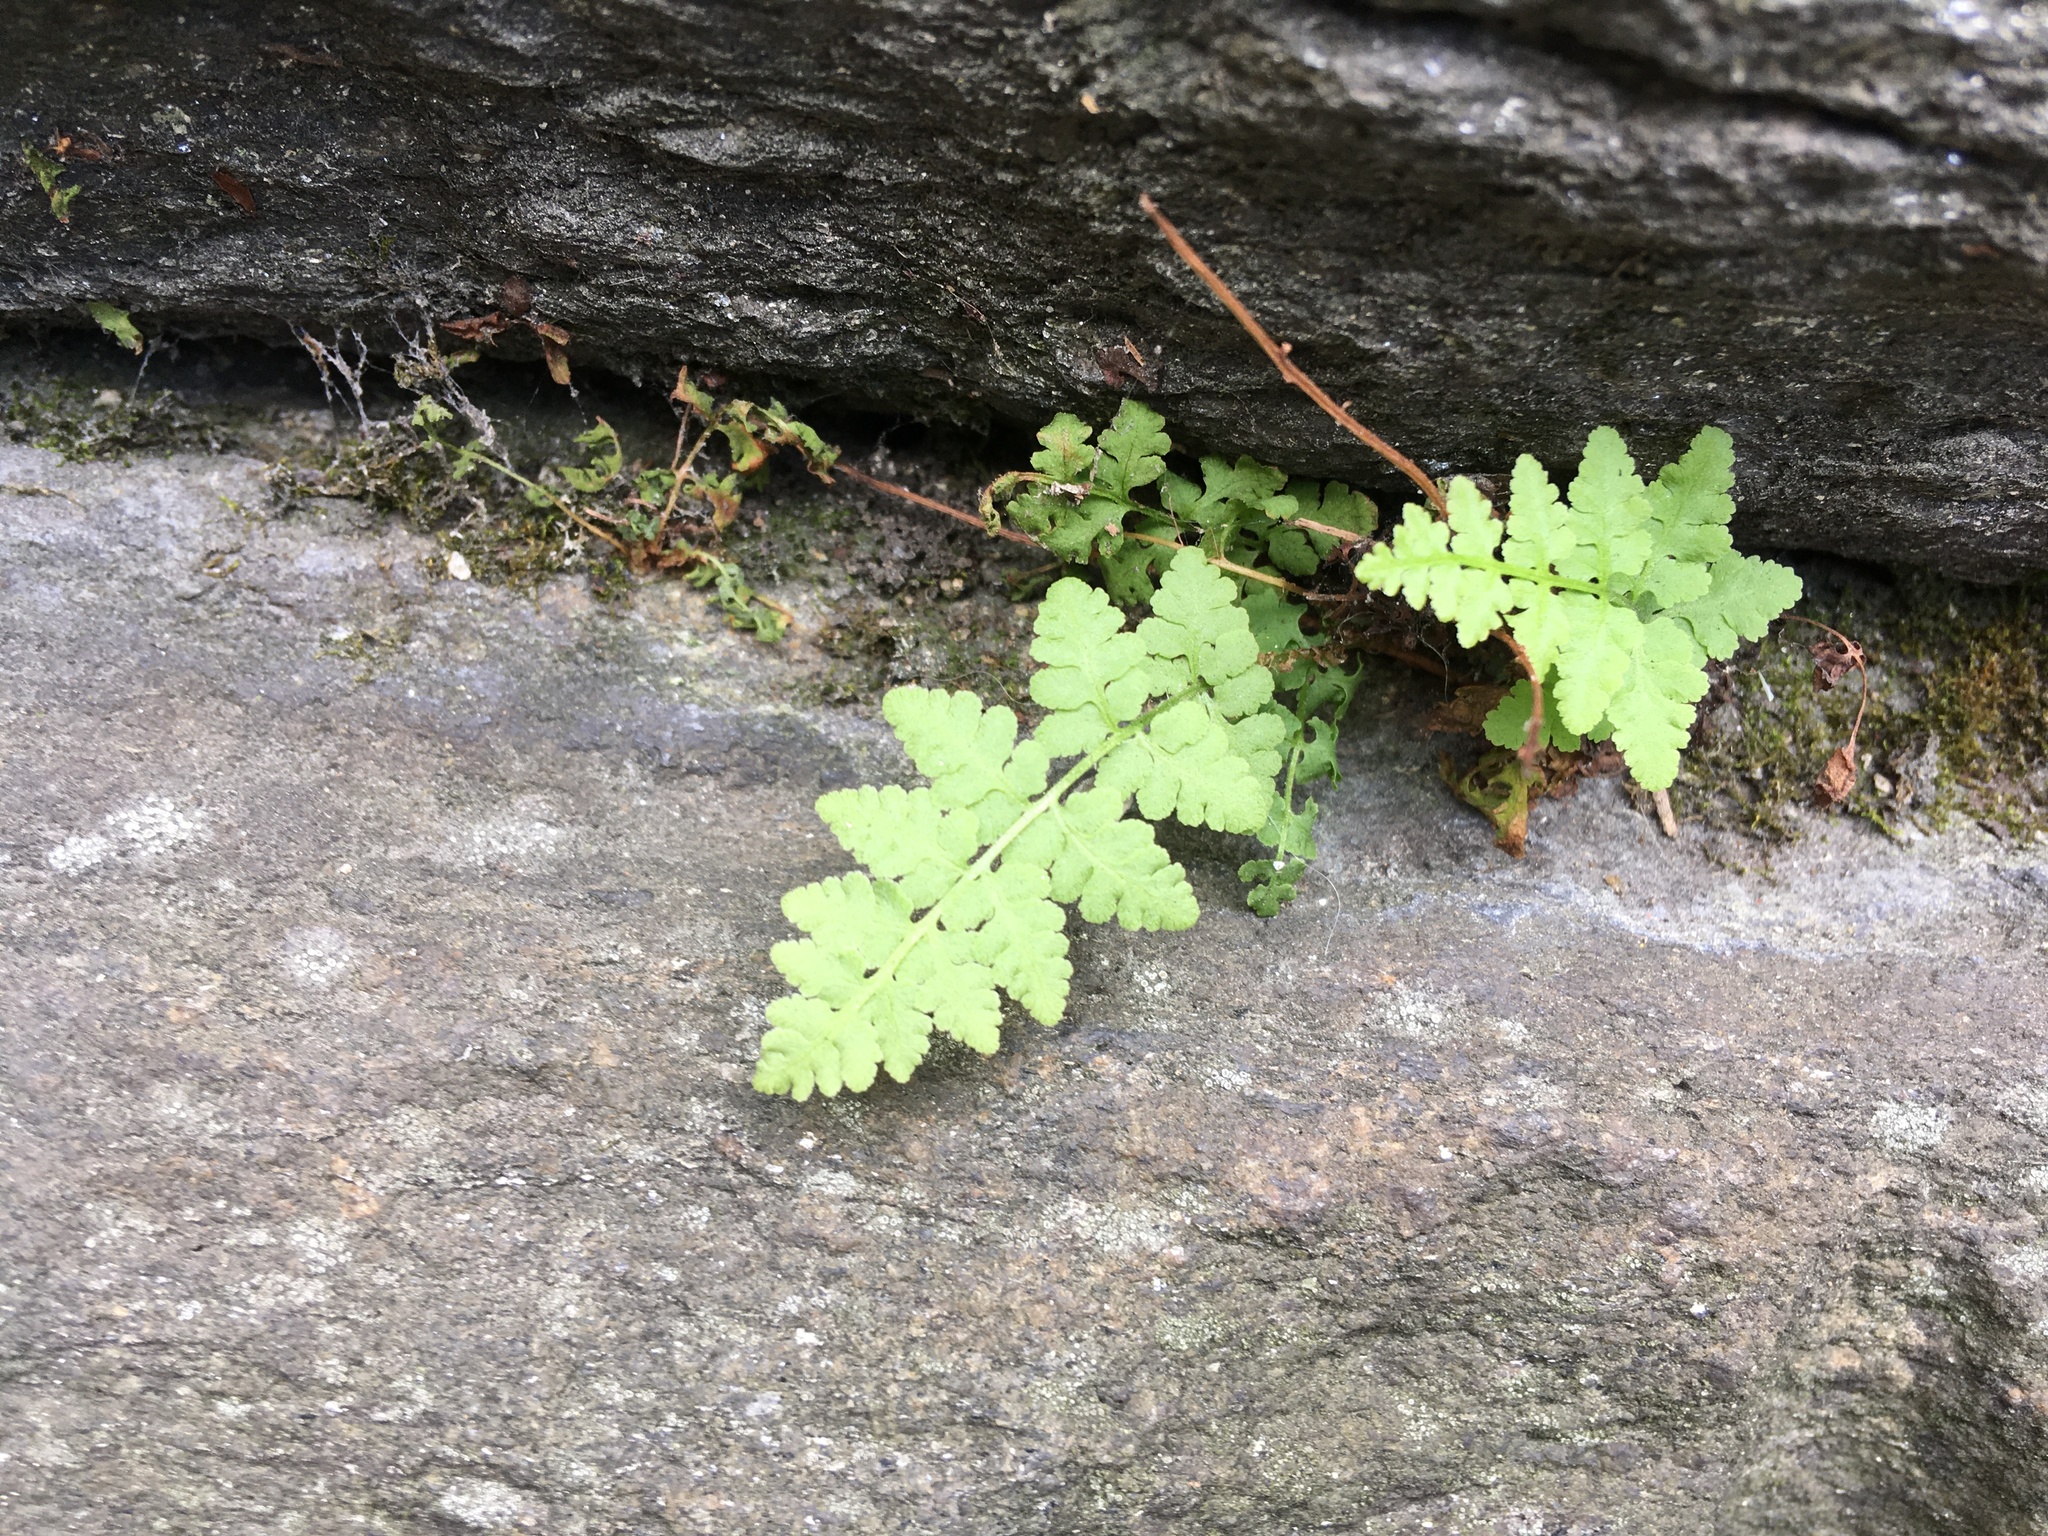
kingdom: Plantae
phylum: Tracheophyta
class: Polypodiopsida
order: Polypodiales
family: Woodsiaceae
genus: Physematium
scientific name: Physematium obtusum
